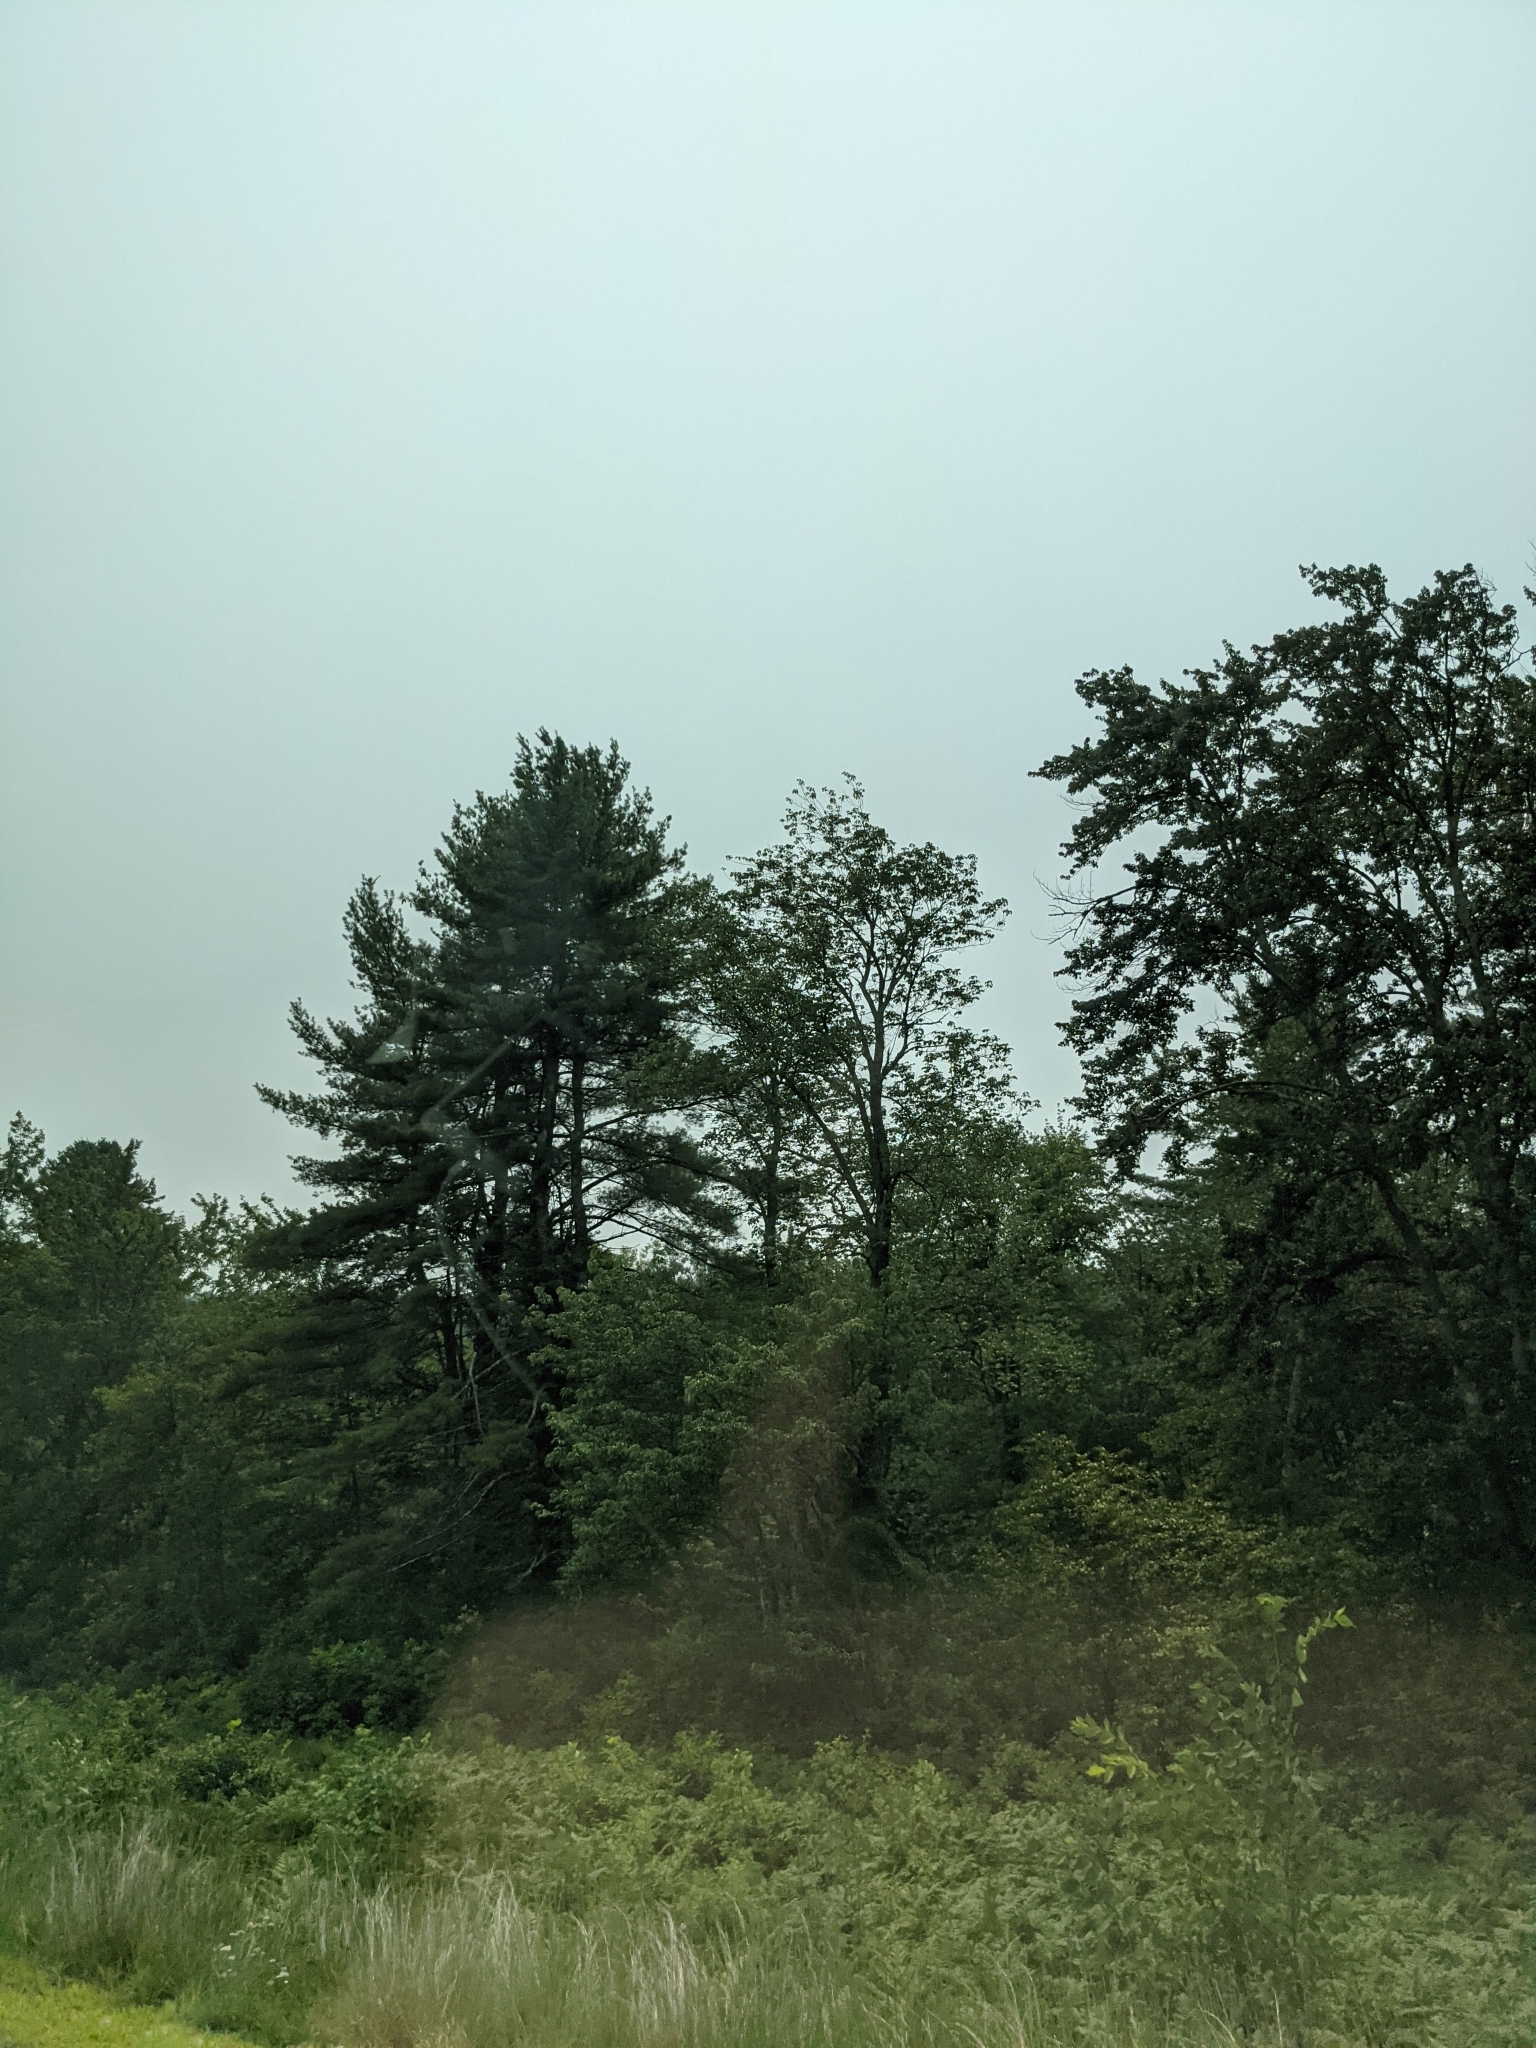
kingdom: Plantae
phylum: Tracheophyta
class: Pinopsida
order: Pinales
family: Pinaceae
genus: Pinus
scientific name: Pinus strobus
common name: Weymouth pine
